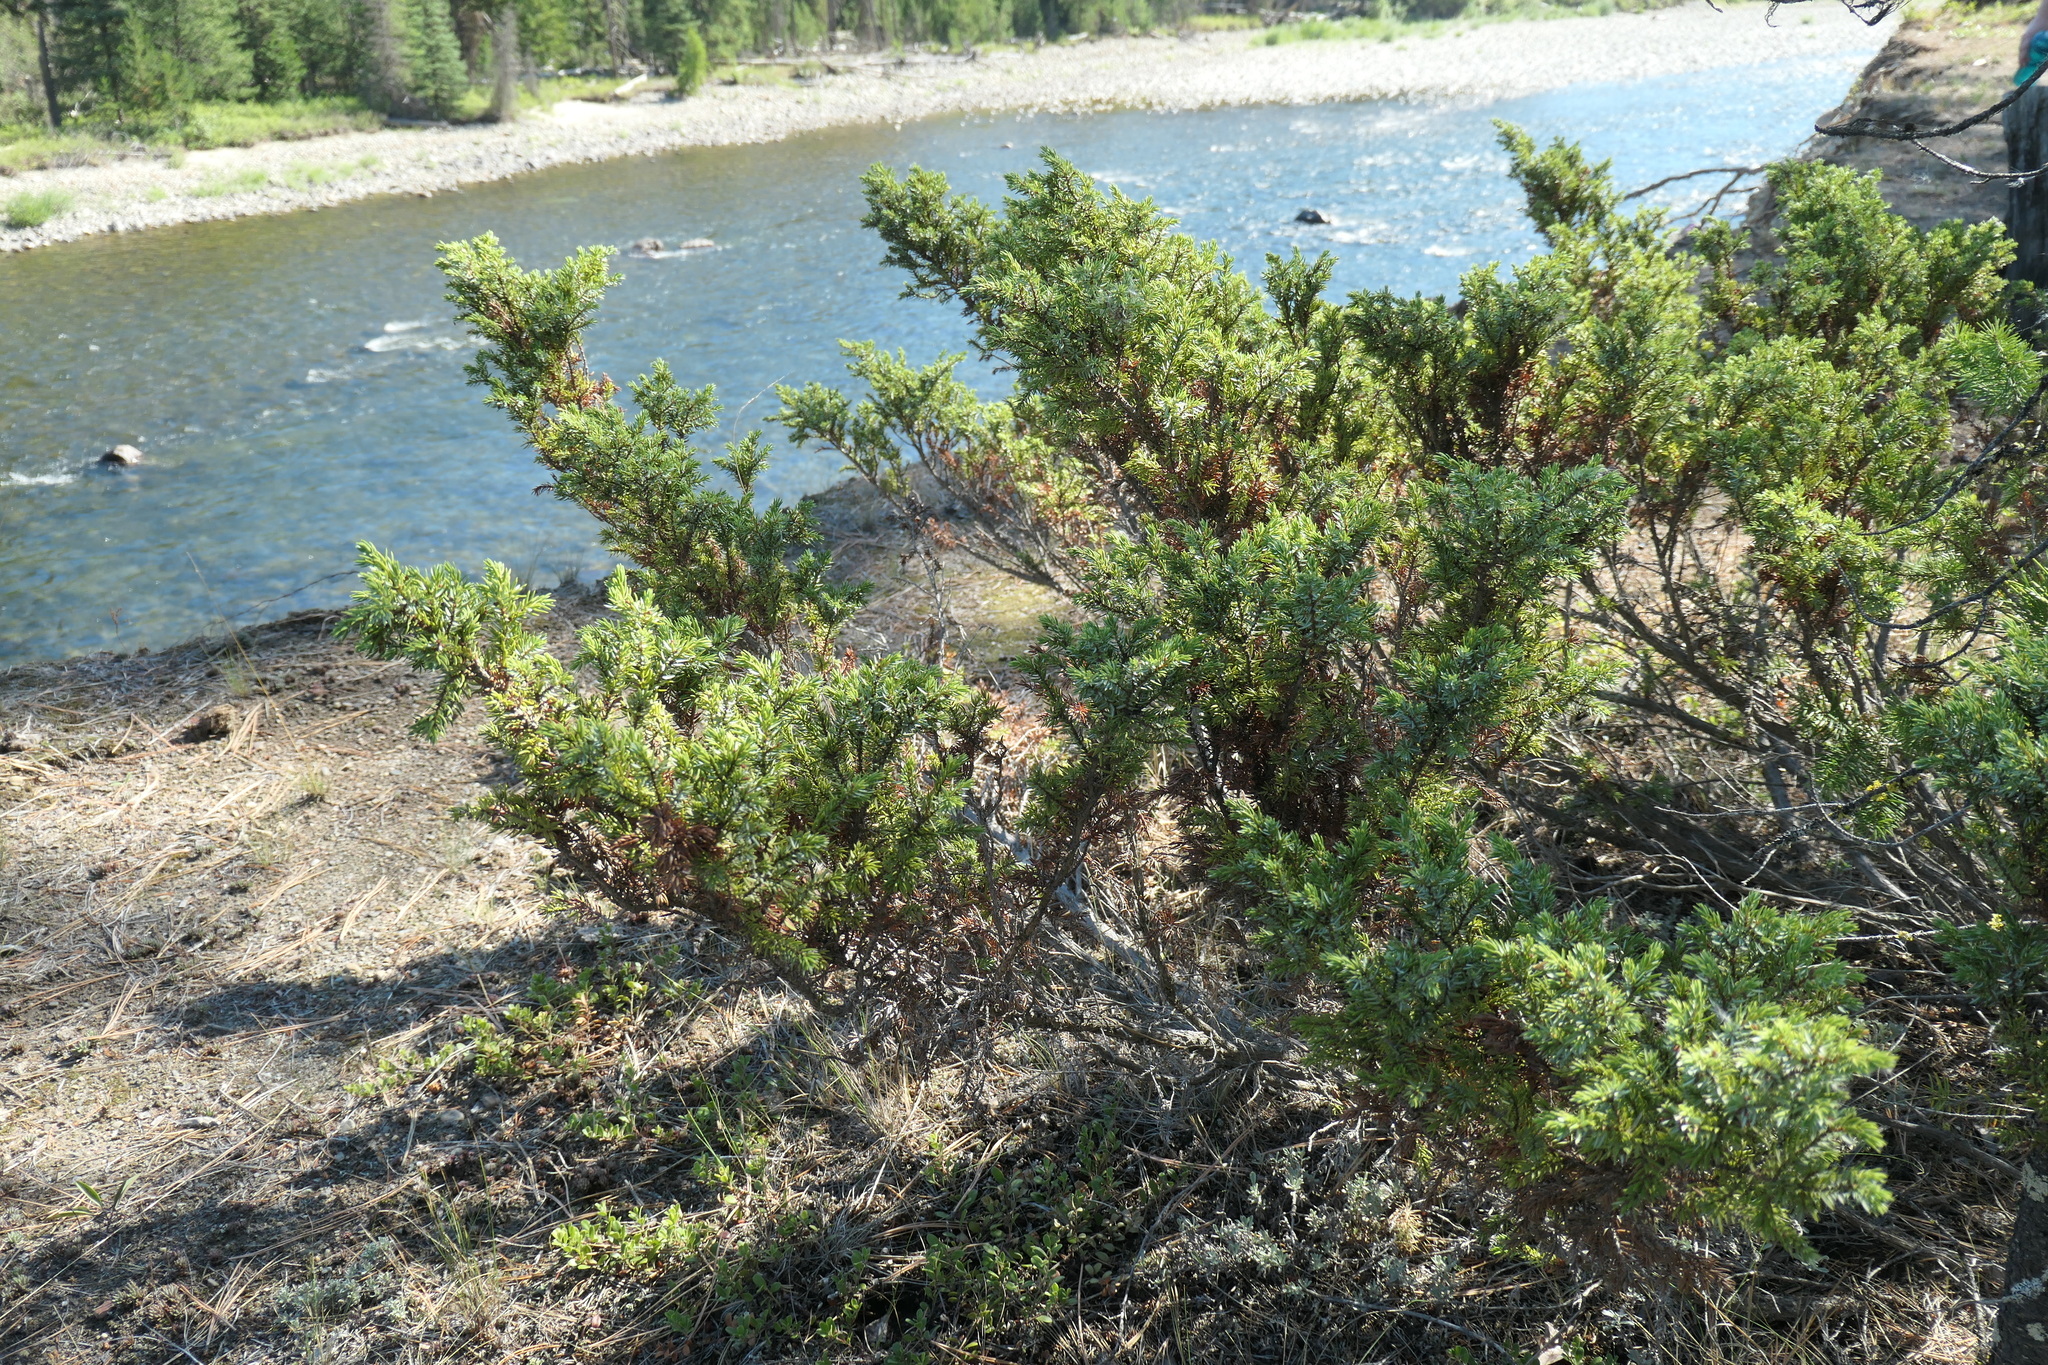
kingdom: Plantae
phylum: Tracheophyta
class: Pinopsida
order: Pinales
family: Cupressaceae
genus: Juniperus
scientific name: Juniperus communis
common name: Common juniper
